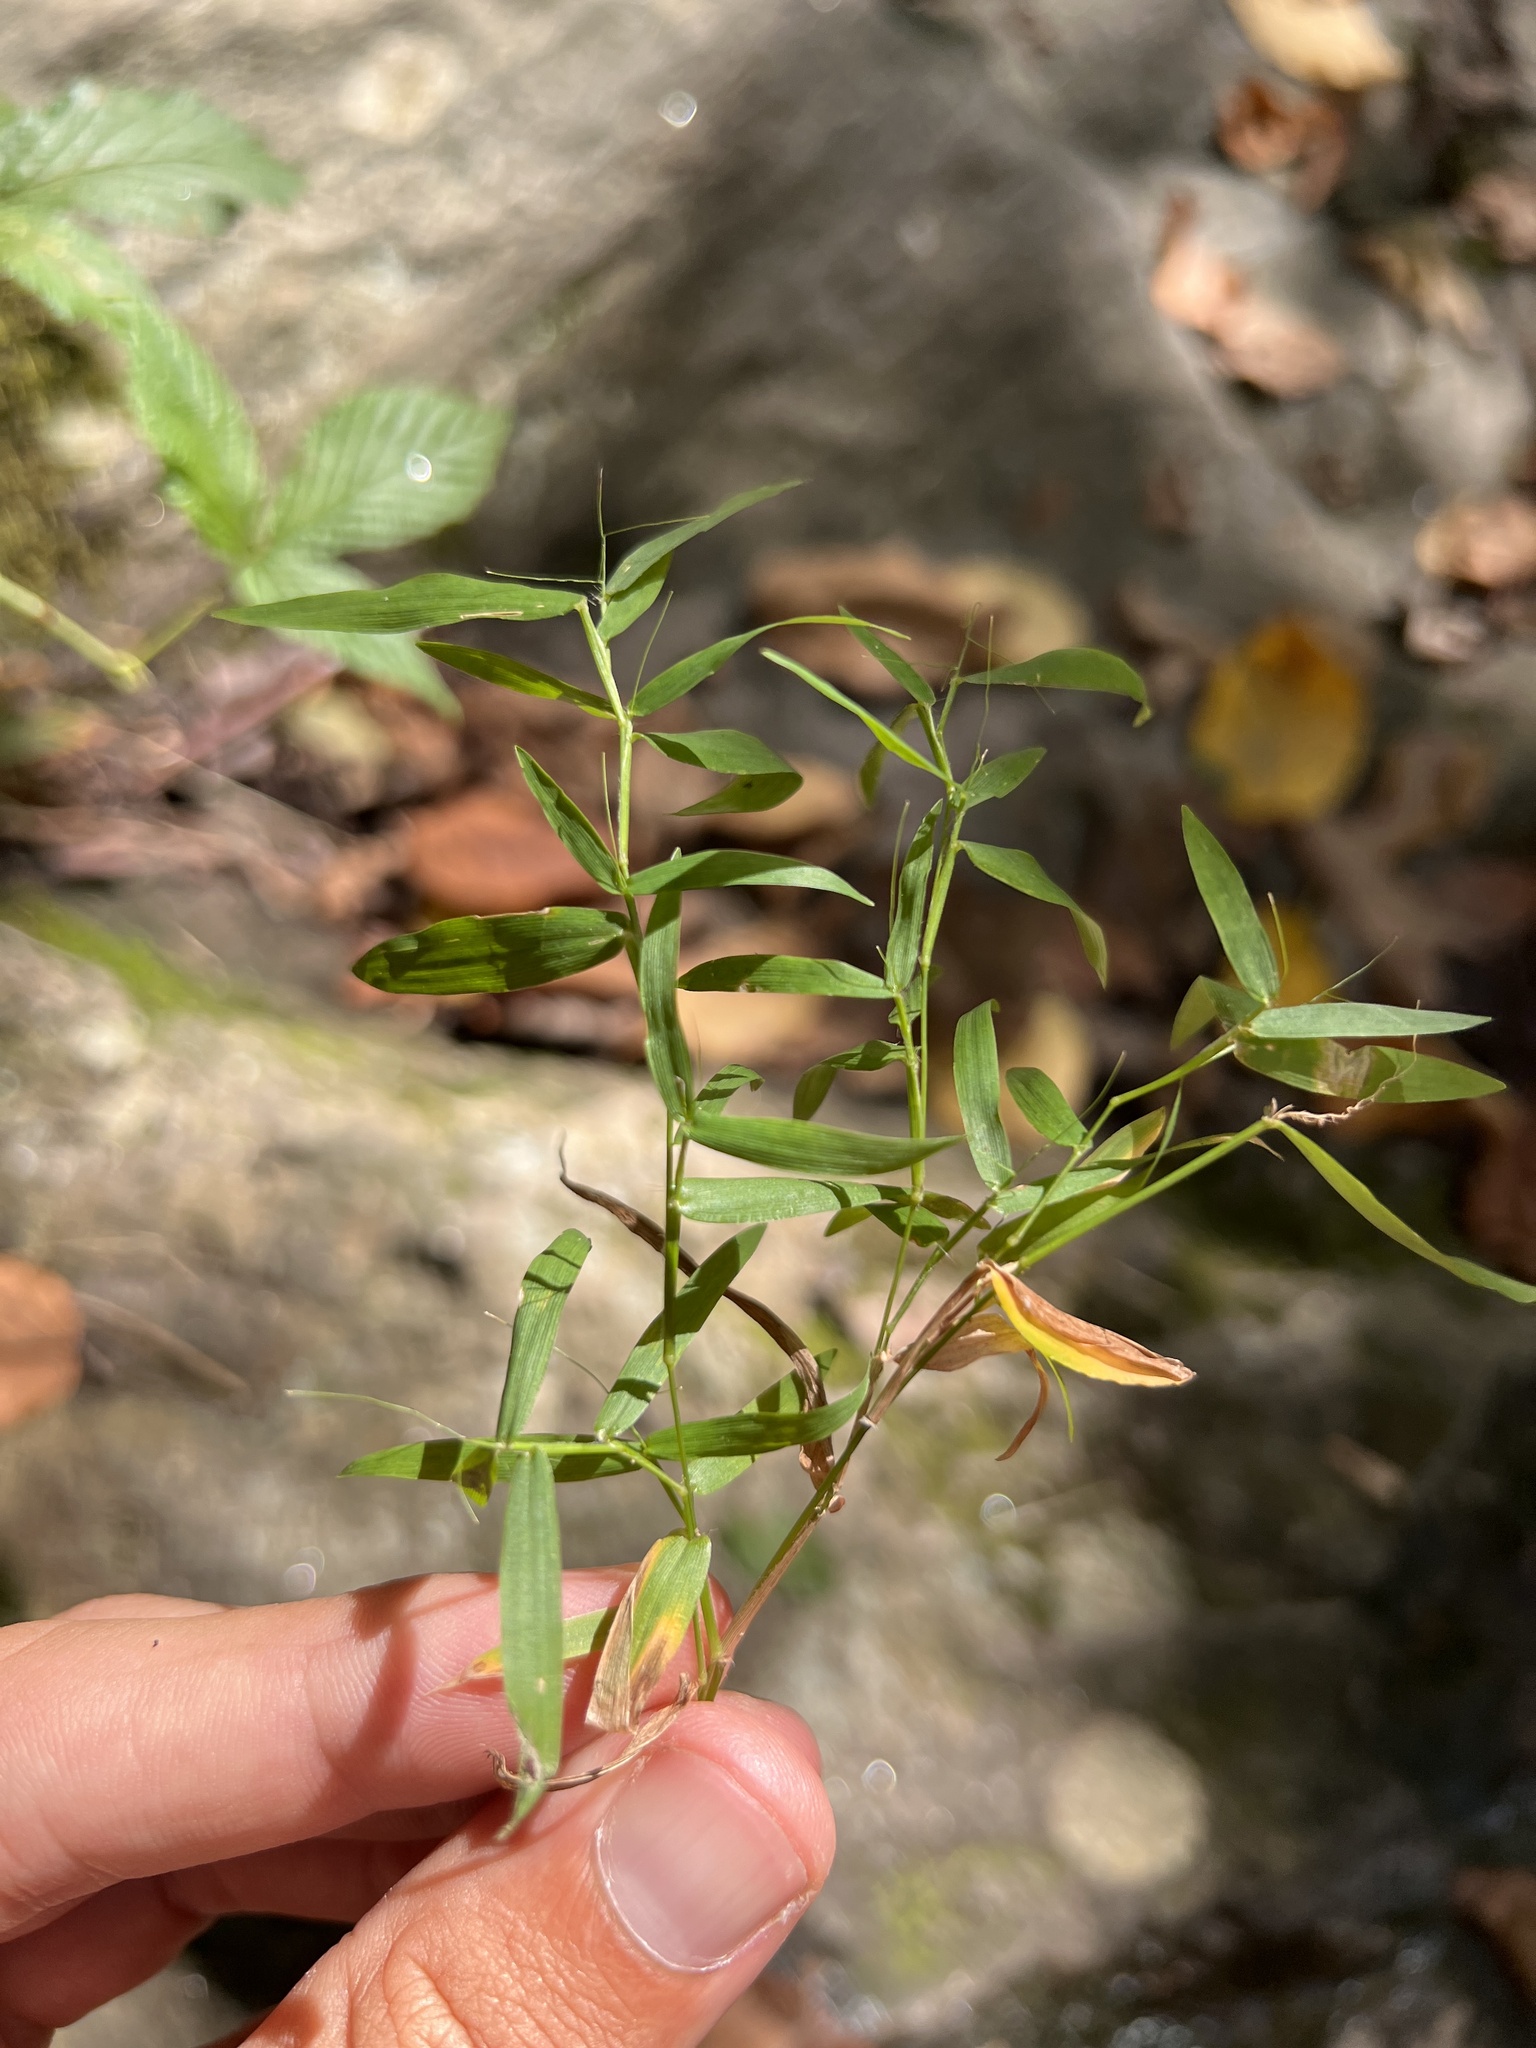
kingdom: Plantae
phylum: Tracheophyta
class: Liliopsida
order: Poales
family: Poaceae
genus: Dichanthelium
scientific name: Dichanthelium microcarpon
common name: Small-fruited witchgrass
